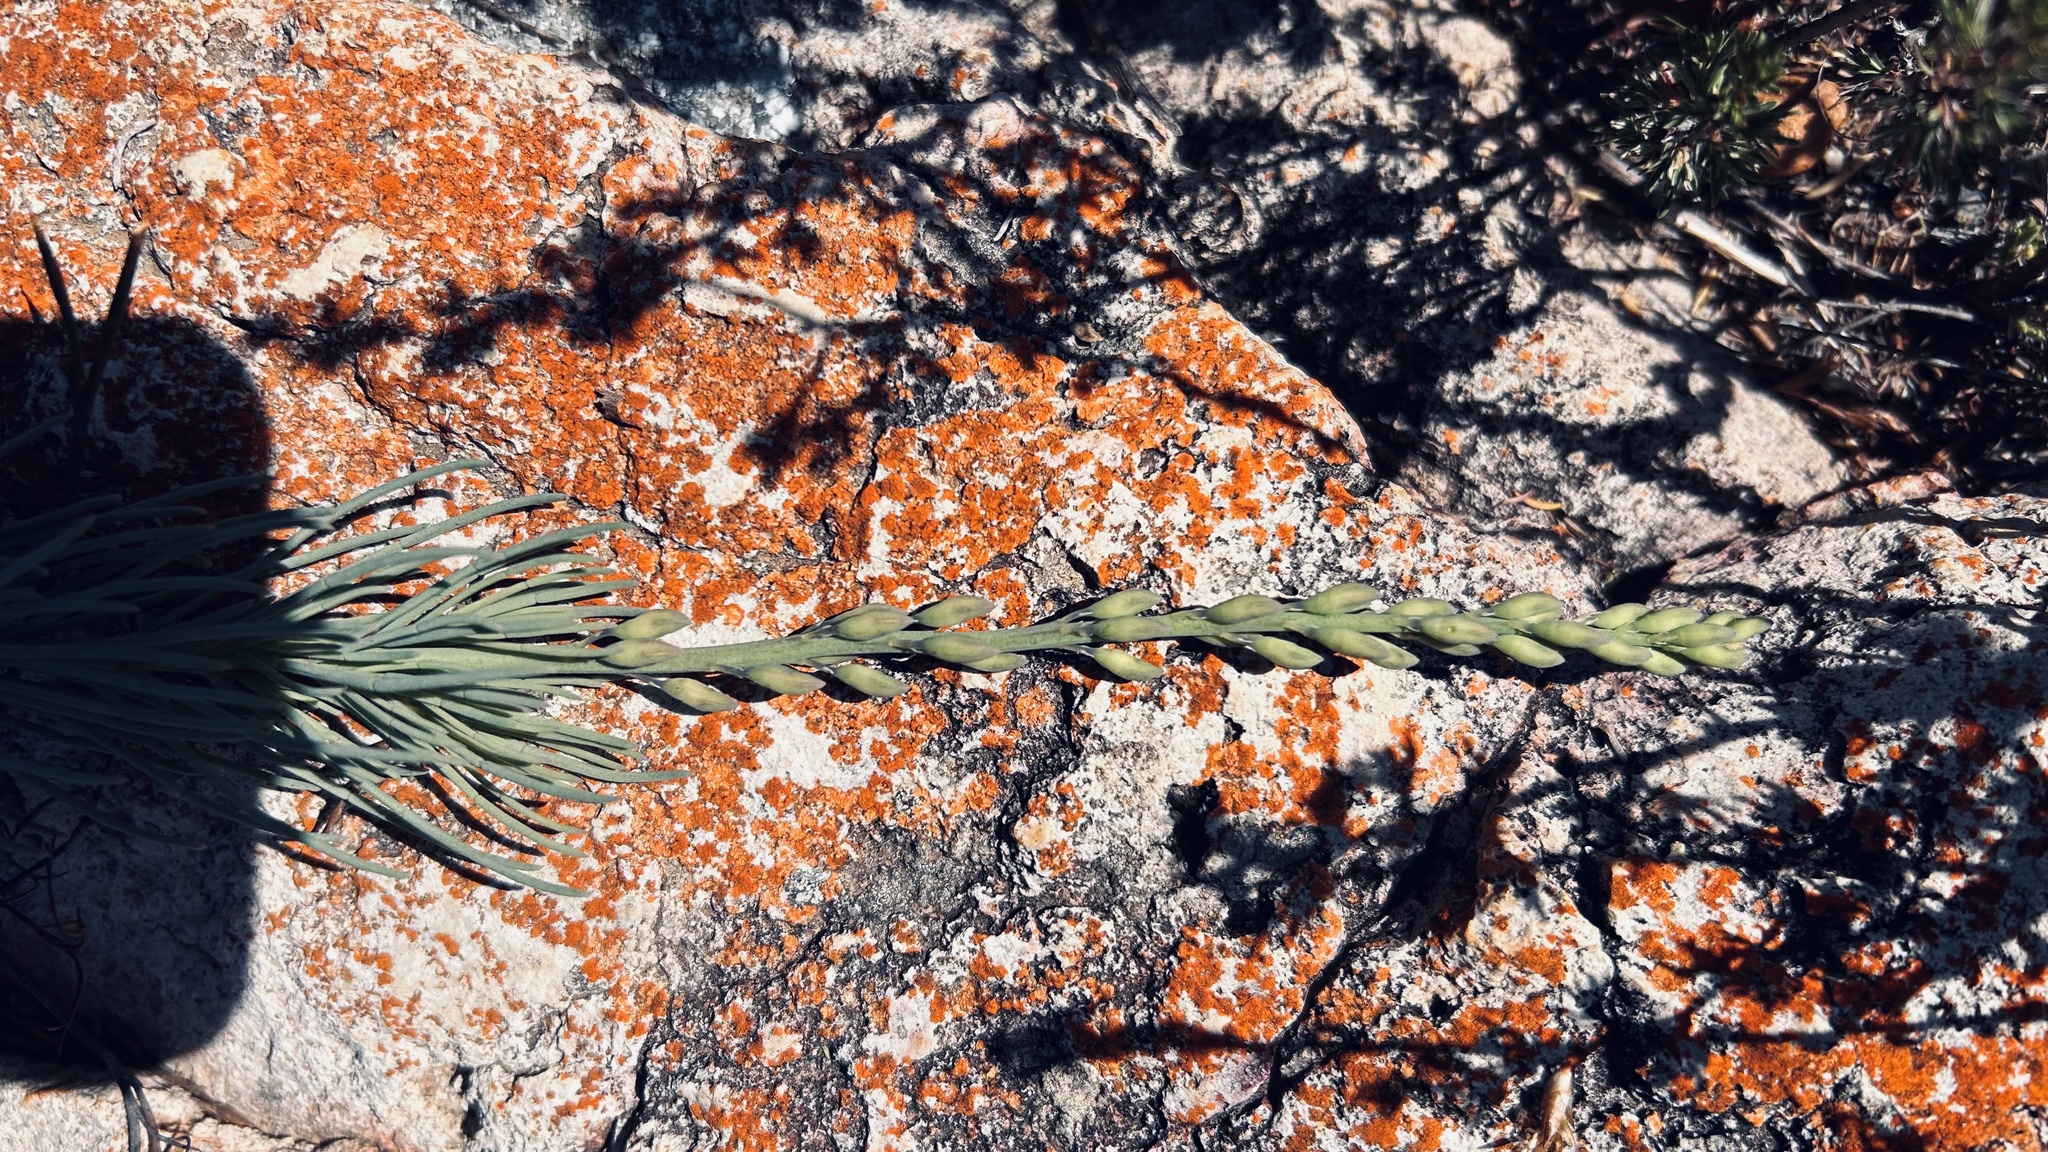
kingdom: Plantae
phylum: Tracheophyta
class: Magnoliopsida
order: Fabales
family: Fabaceae
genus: Lebeckia
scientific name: Lebeckia gracilis
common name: Slender ganna
